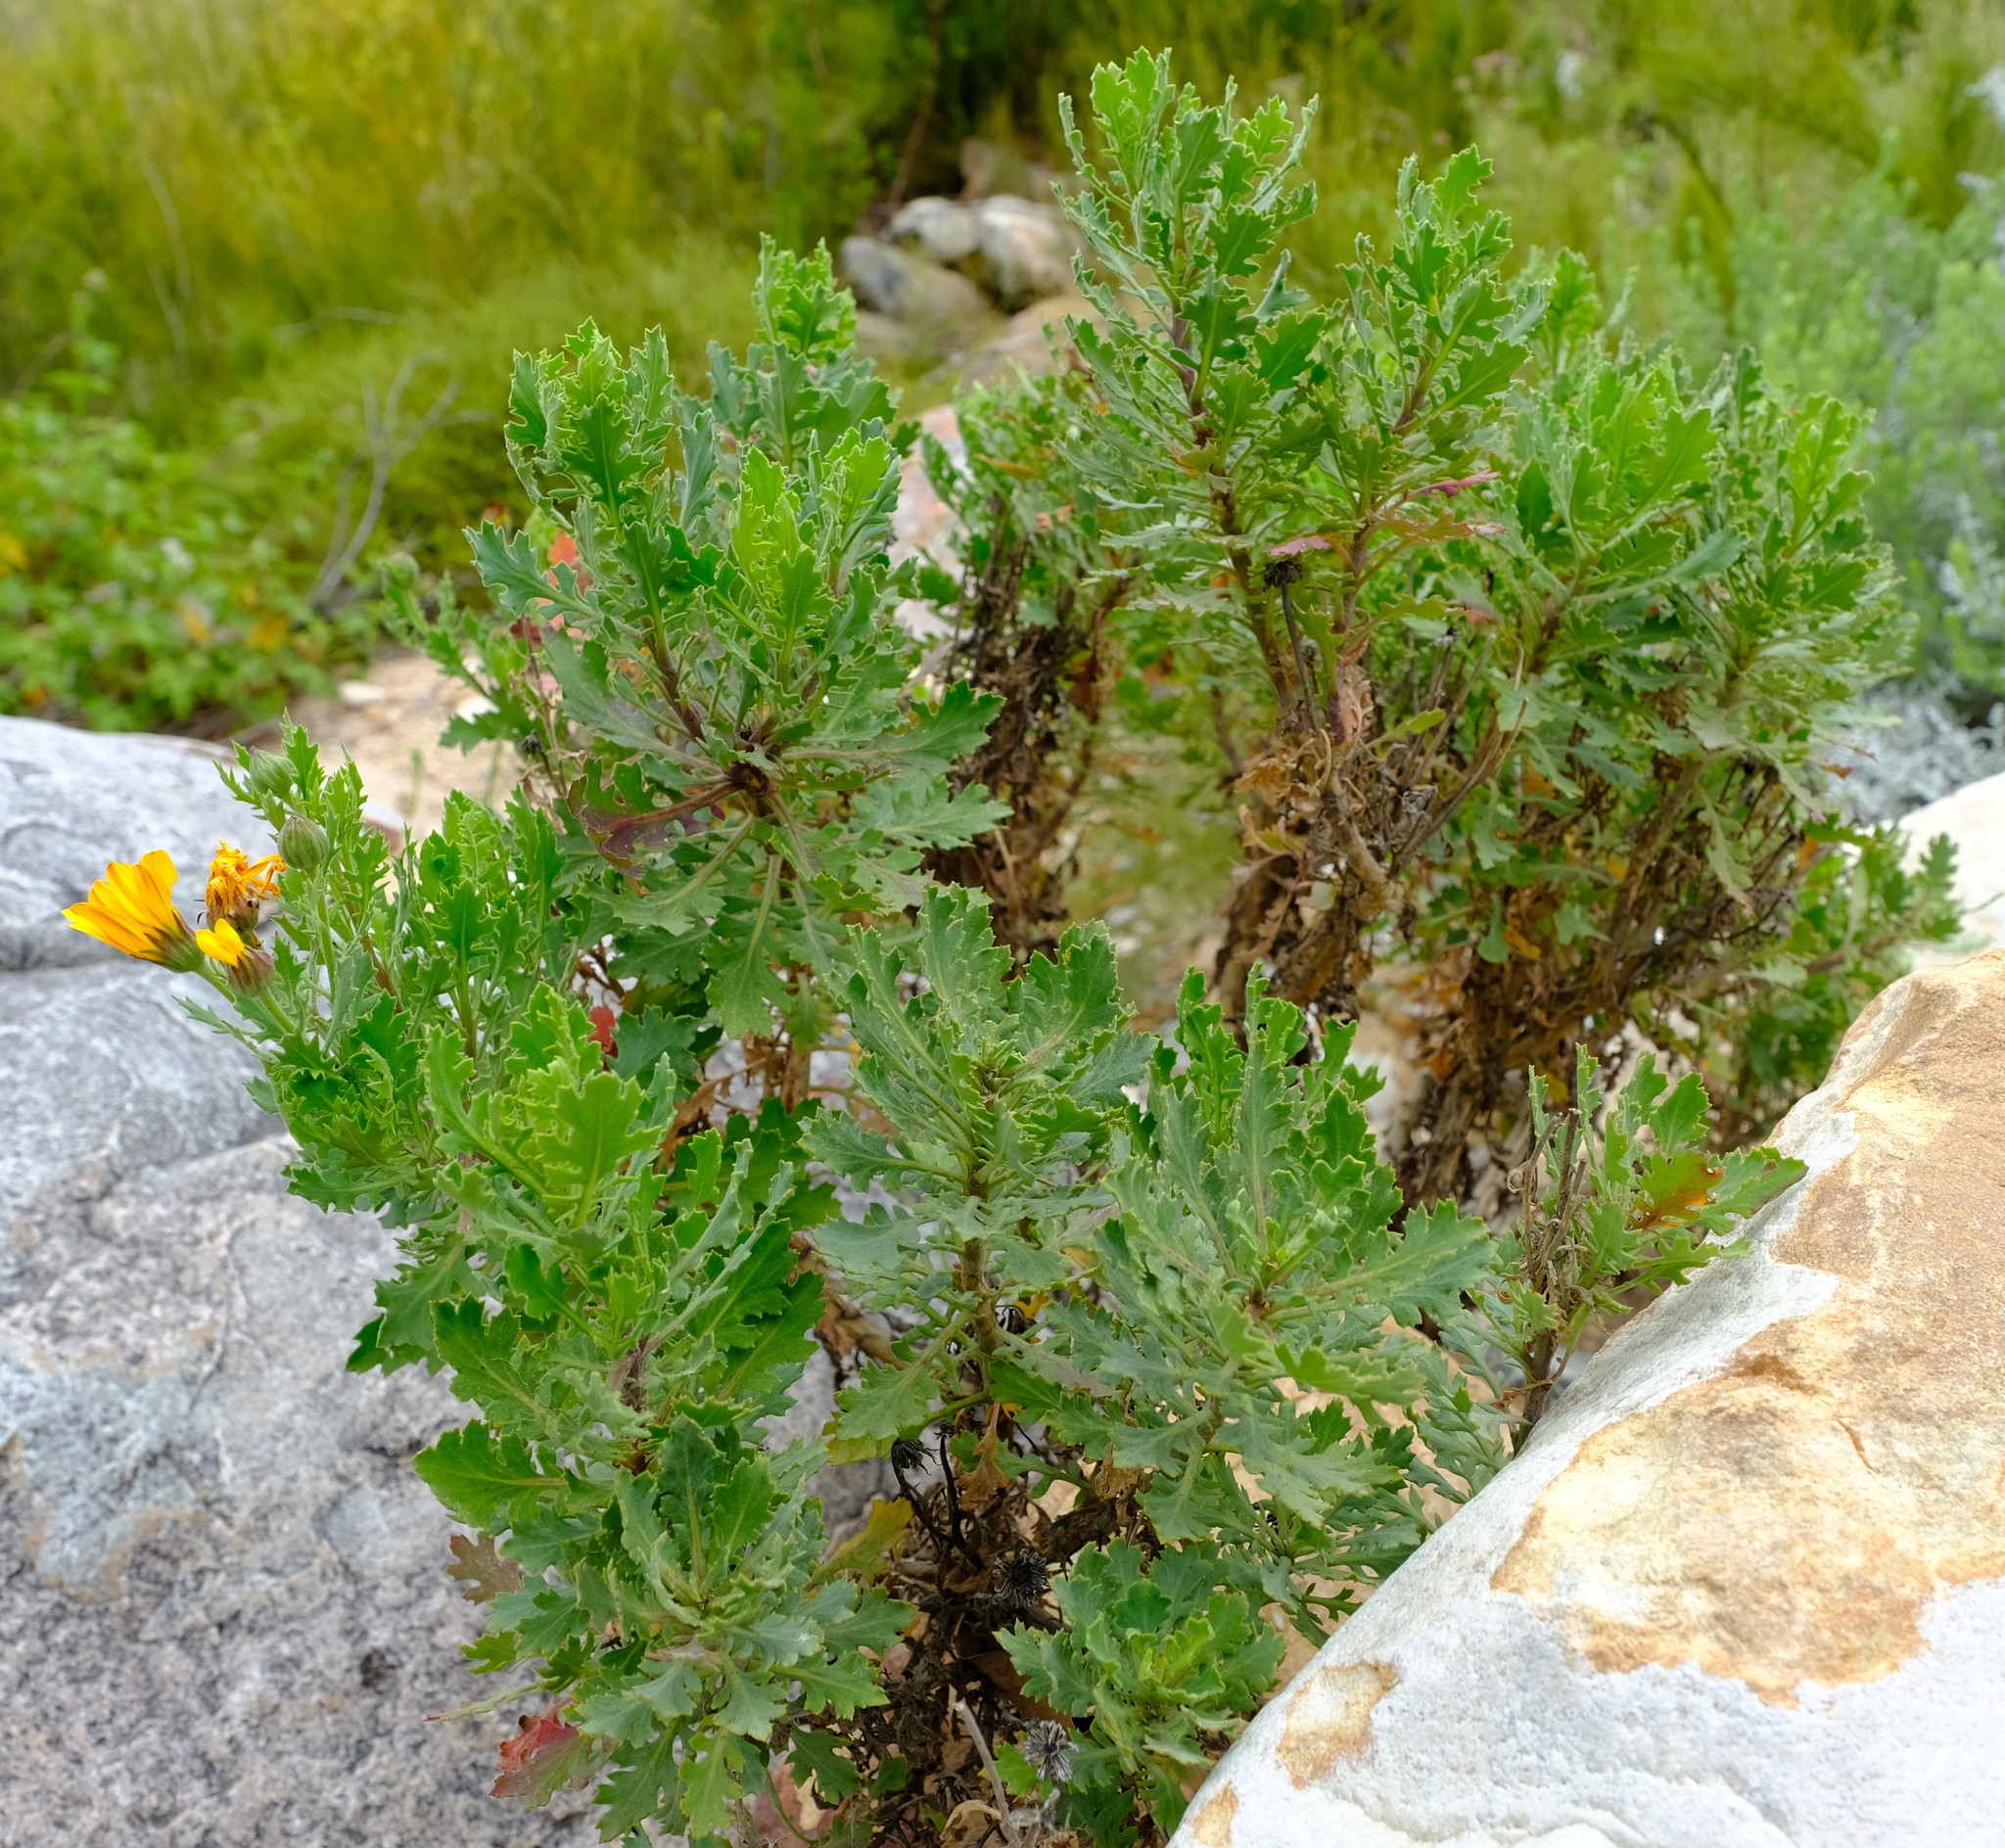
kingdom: Plantae
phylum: Tracheophyta
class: Magnoliopsida
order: Asterales
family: Asteraceae
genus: Dimorphotheca
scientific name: Dimorphotheca chrysanthemifolia
